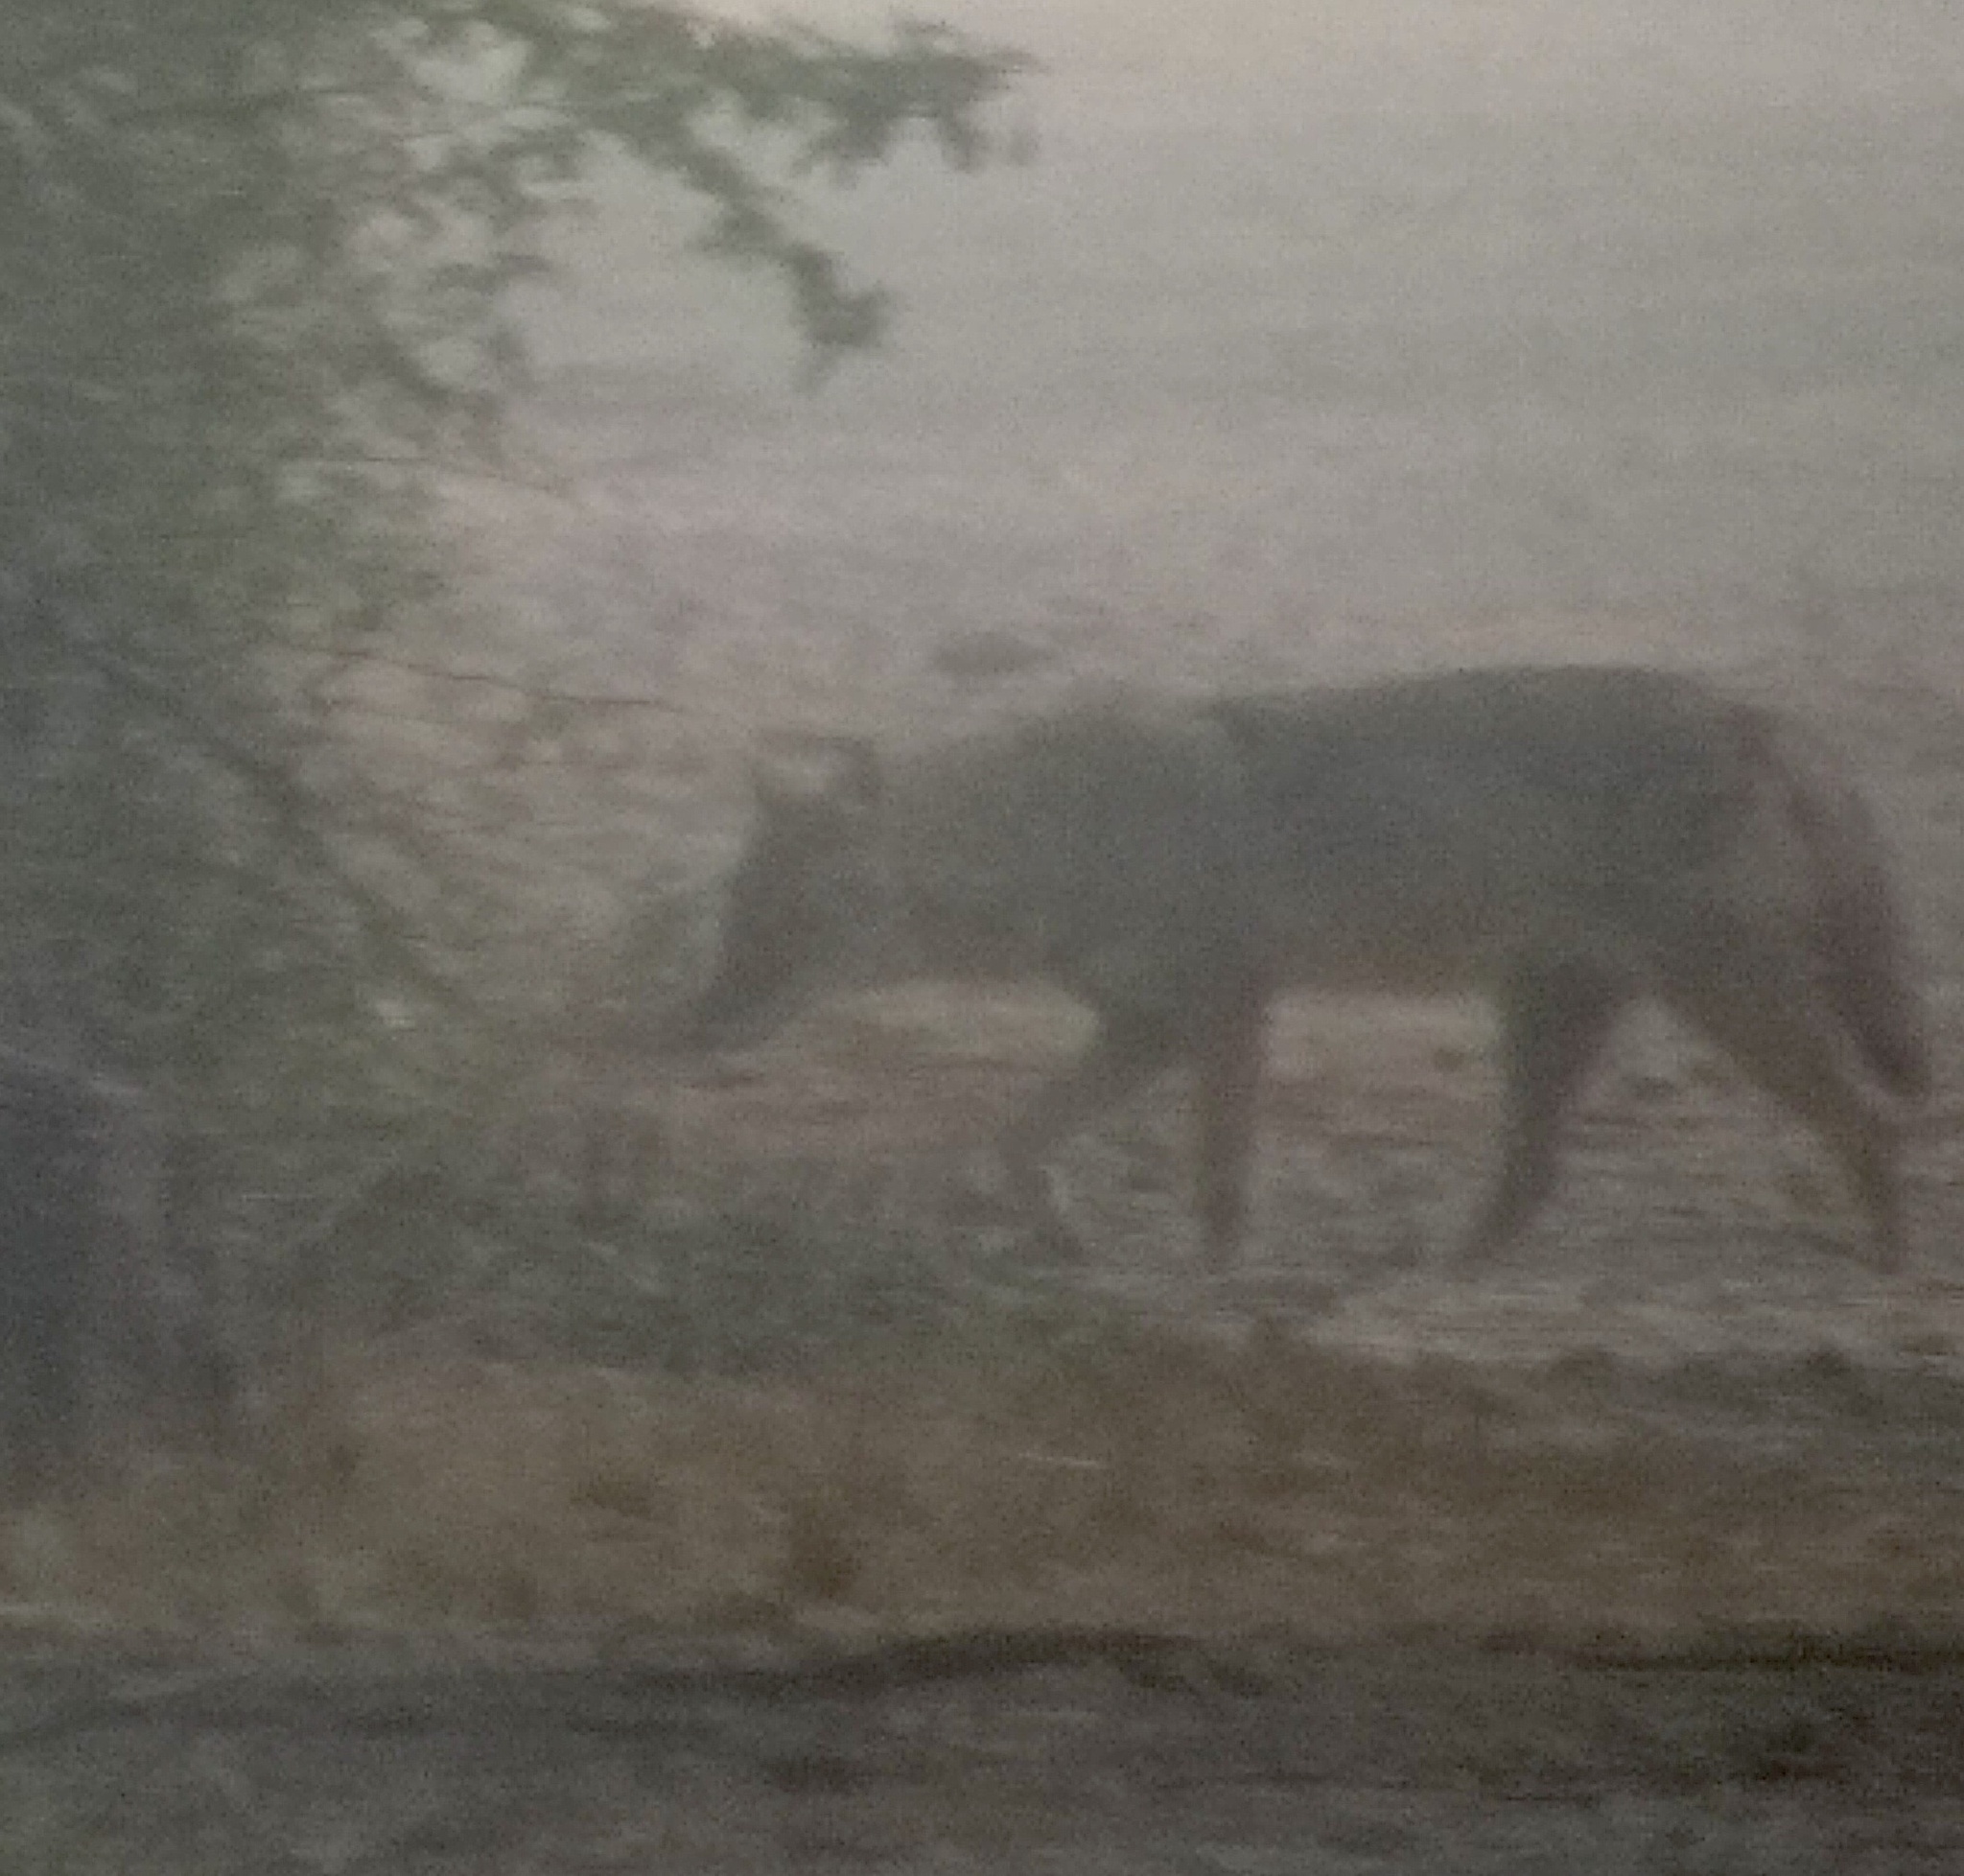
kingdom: Animalia
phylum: Chordata
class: Mammalia
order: Carnivora
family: Canidae
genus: Canis
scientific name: Canis aureus
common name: Golden jackal
